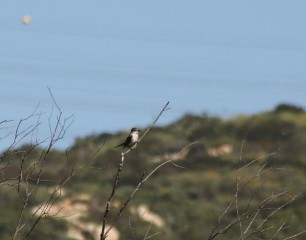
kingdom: Animalia
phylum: Chordata
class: Aves
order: Passeriformes
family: Tyrannidae
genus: Myiarchus
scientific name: Myiarchus cinerascens
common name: Ash-throated flycatcher
